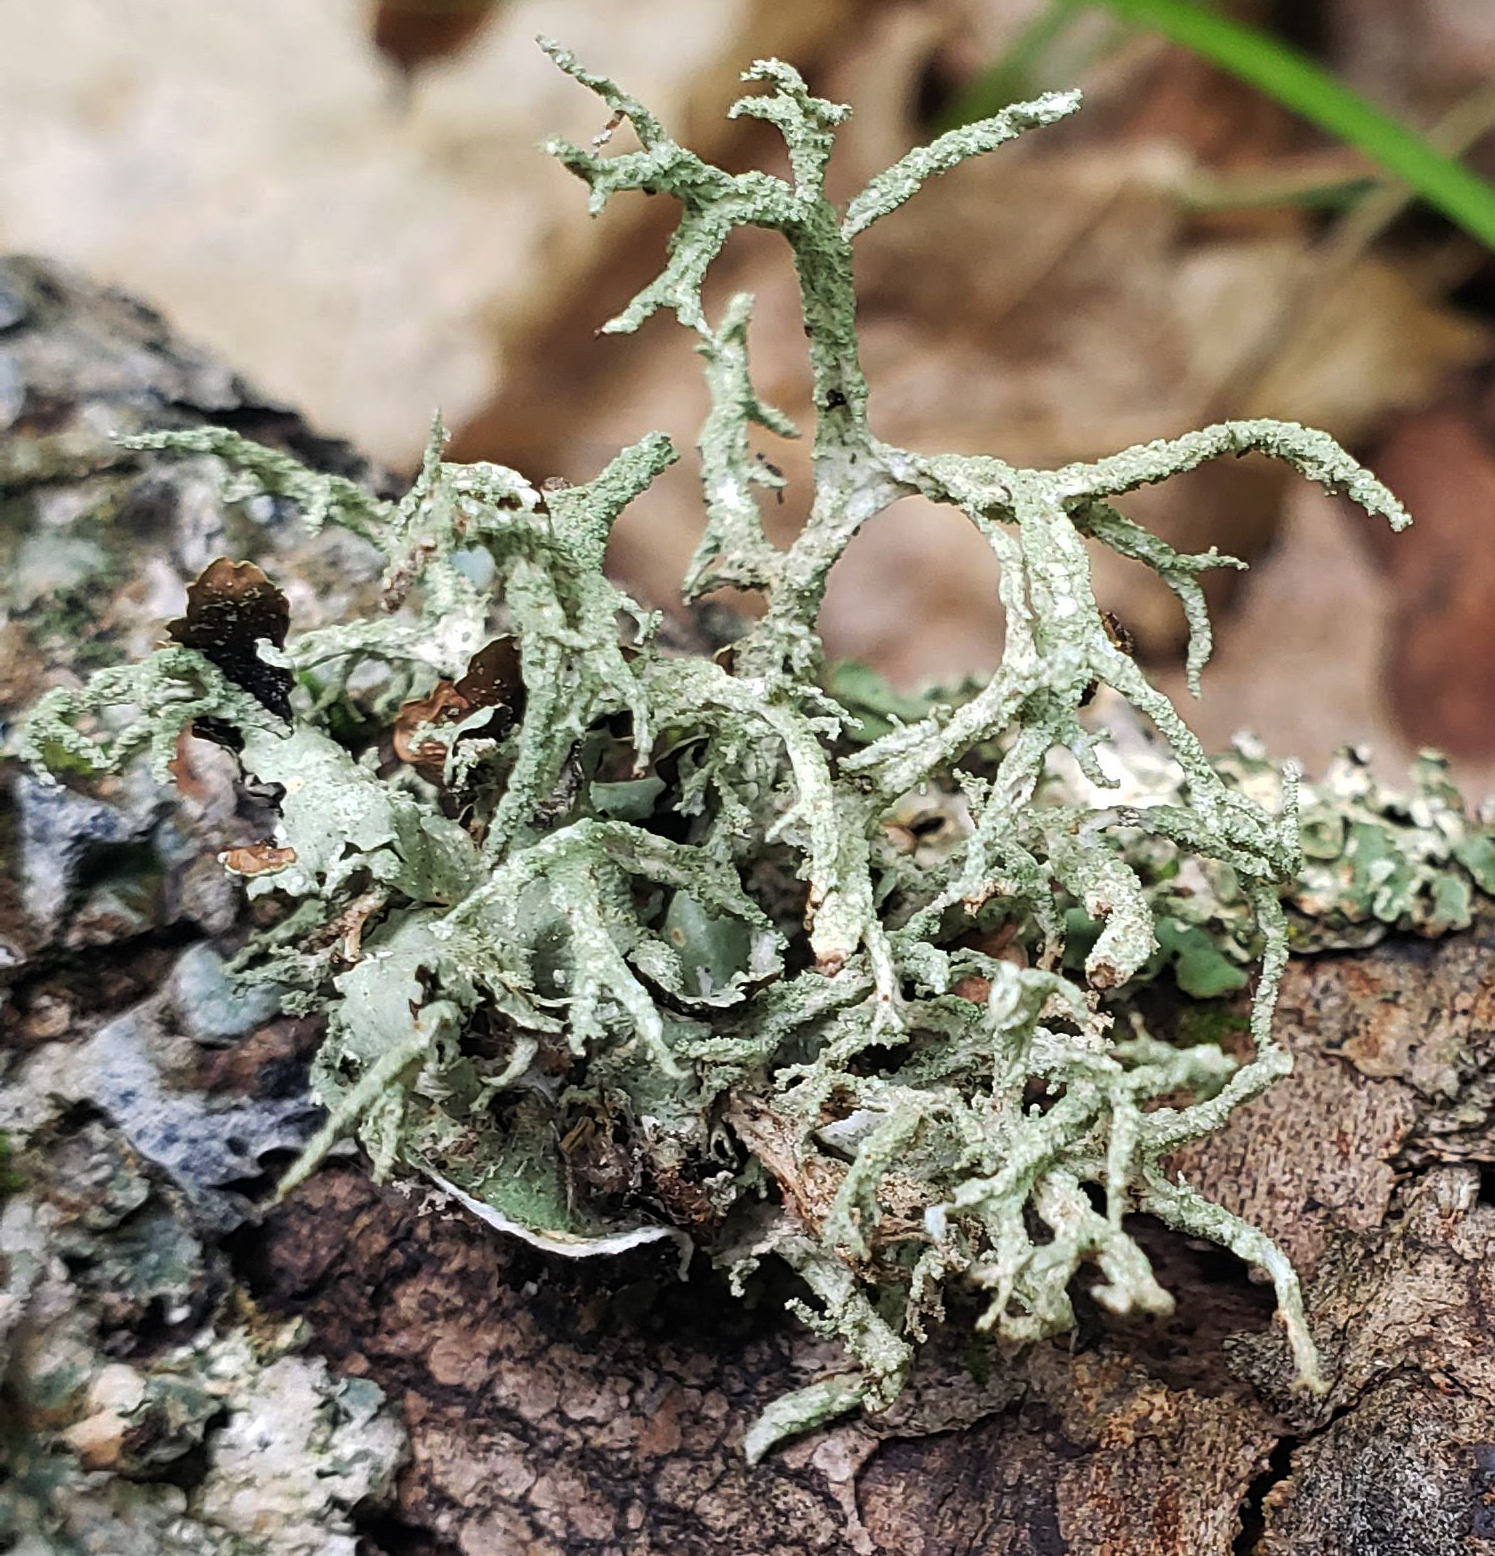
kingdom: Fungi
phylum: Ascomycota
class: Lecanoromycetes
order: Lecanorales
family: Parmeliaceae
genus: Evernia
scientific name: Evernia mesomorpha
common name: Boreal oak moss lichen
